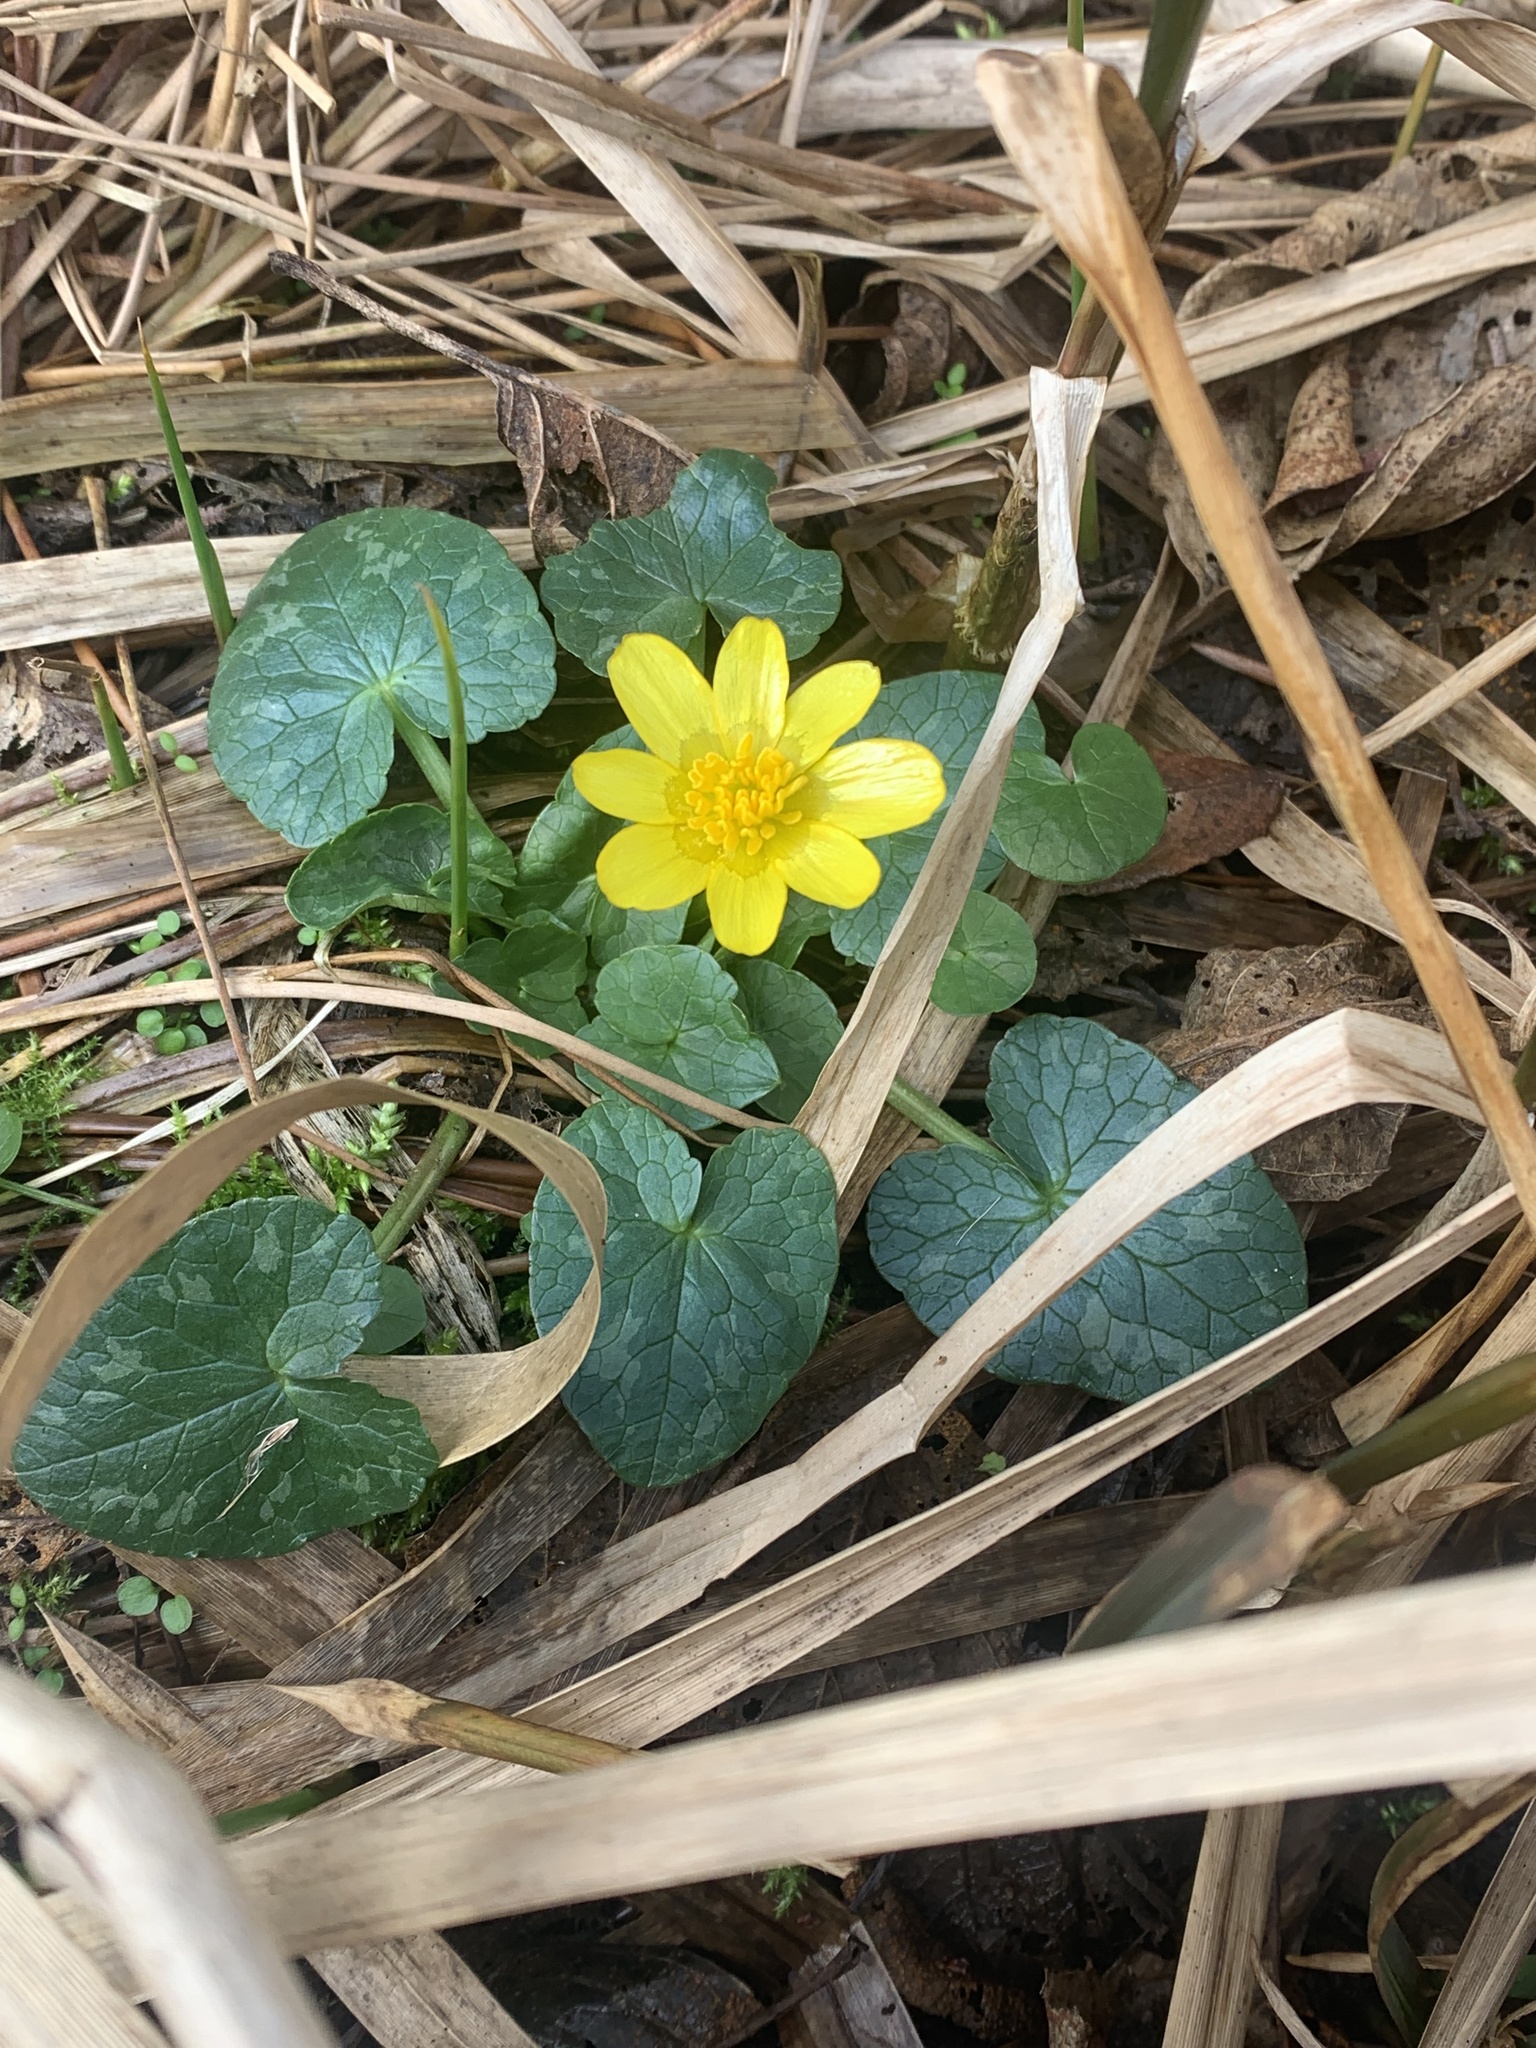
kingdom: Plantae
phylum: Tracheophyta
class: Magnoliopsida
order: Ranunculales
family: Ranunculaceae
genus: Ficaria
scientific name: Ficaria verna
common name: Lesser celandine
